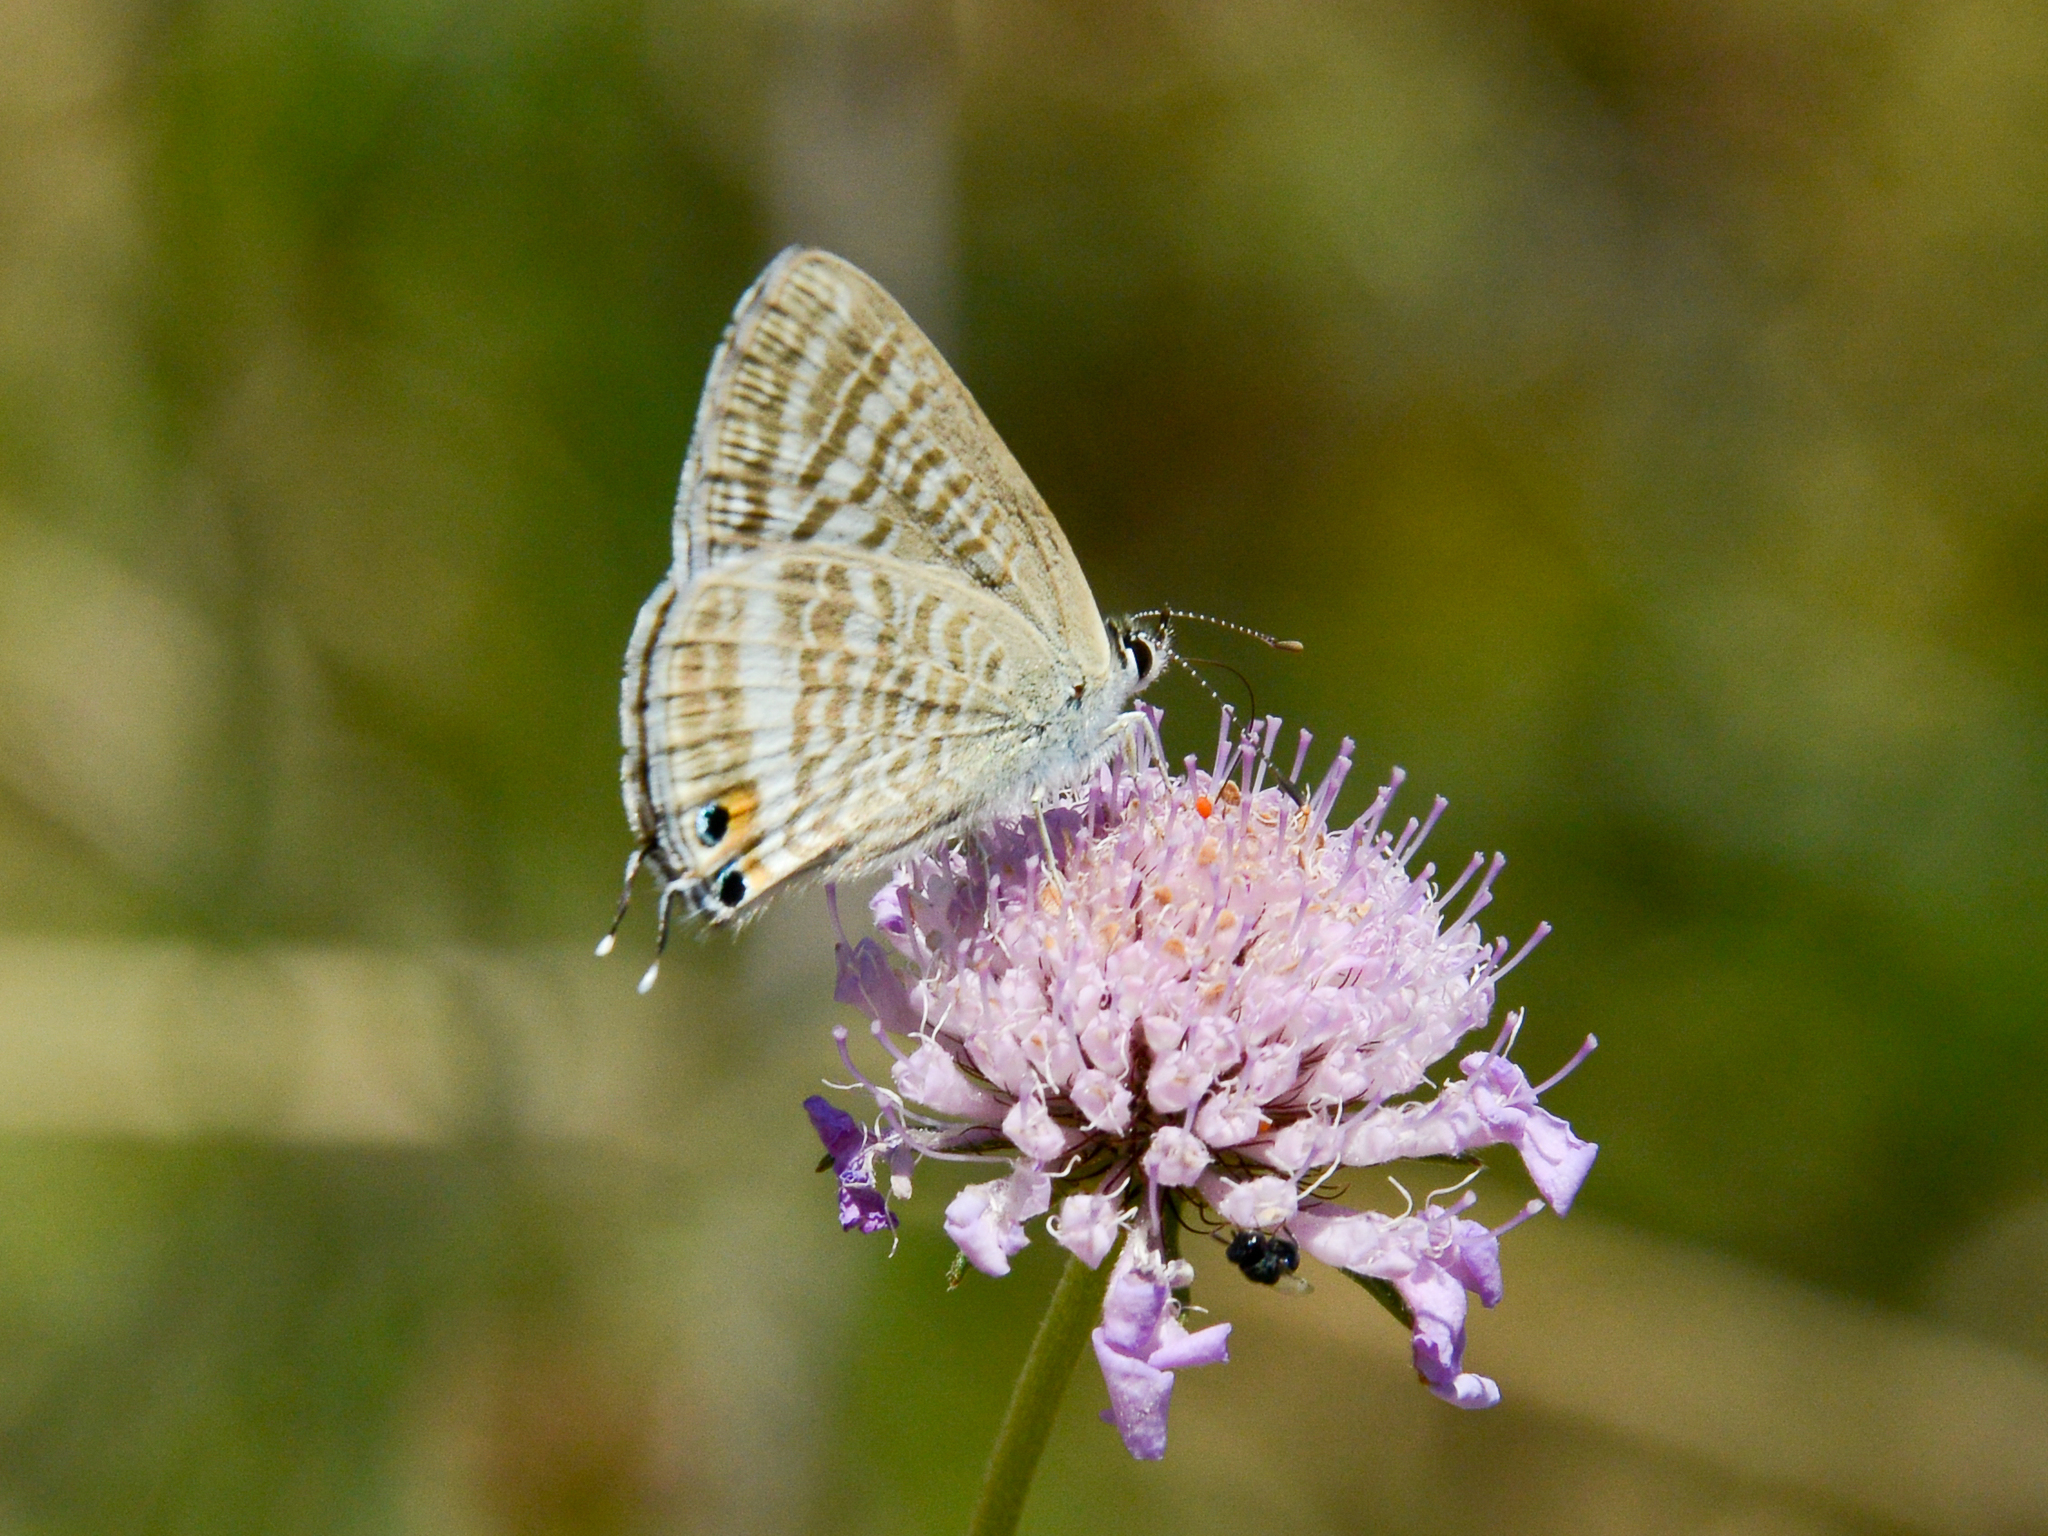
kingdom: Animalia
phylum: Arthropoda
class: Insecta
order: Lepidoptera
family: Lycaenidae
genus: Lampides
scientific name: Lampides boeticus
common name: Long-tailed blue
